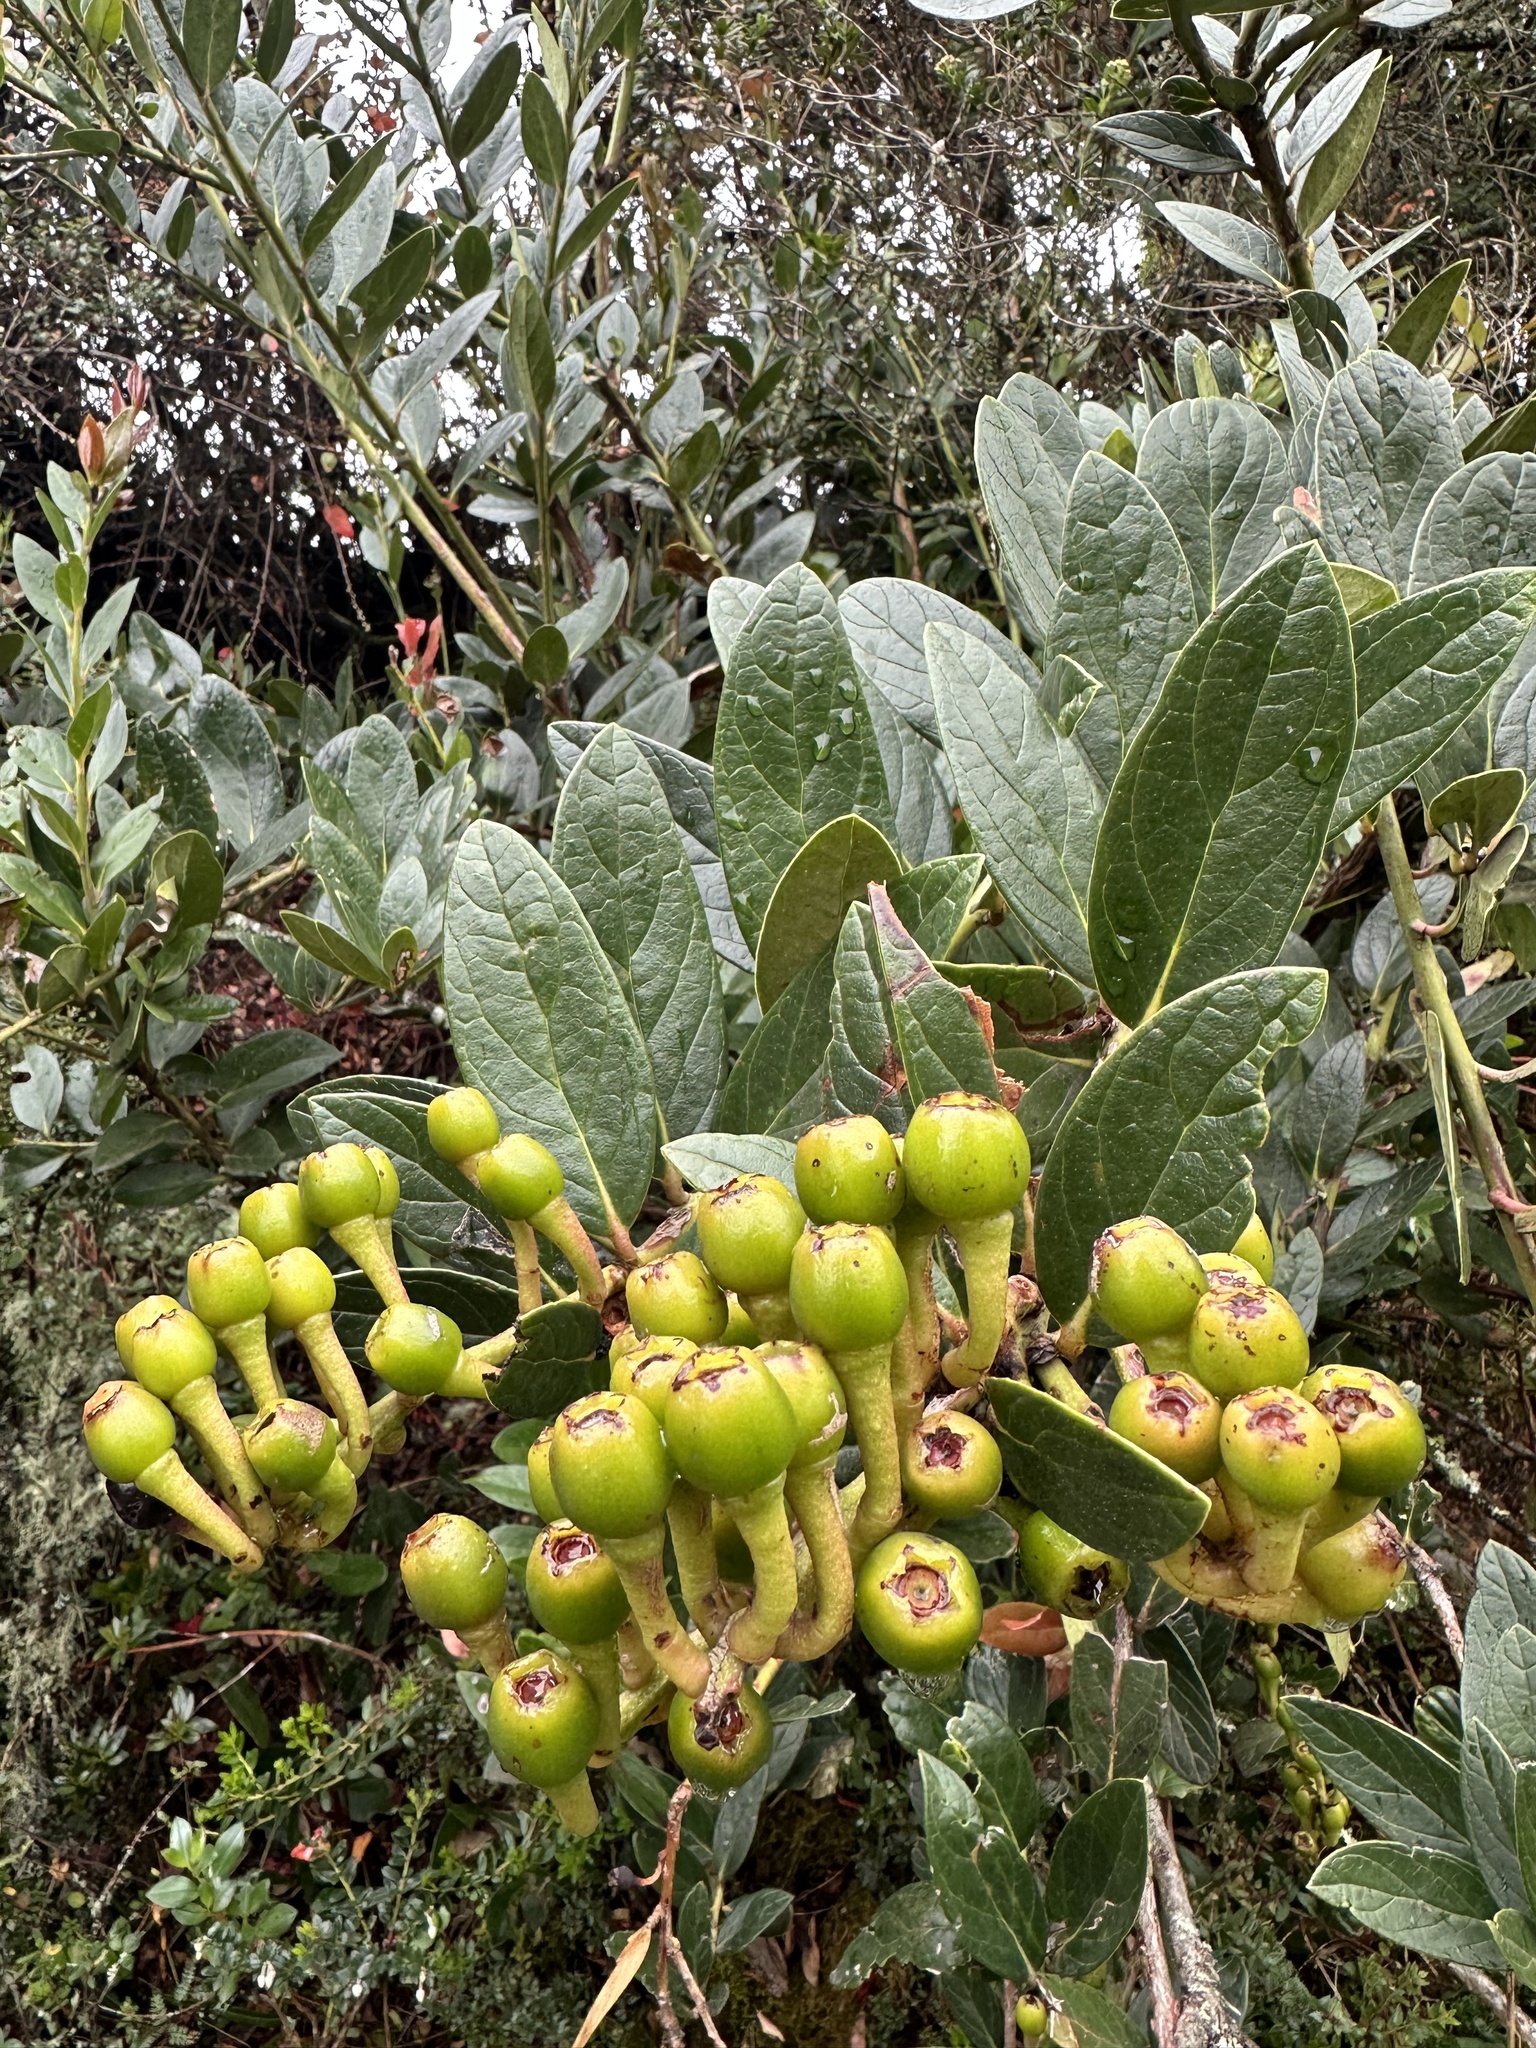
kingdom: Plantae
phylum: Tracheophyta
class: Magnoliopsida
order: Ericales
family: Ericaceae
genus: Macleania
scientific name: Macleania rupestris
